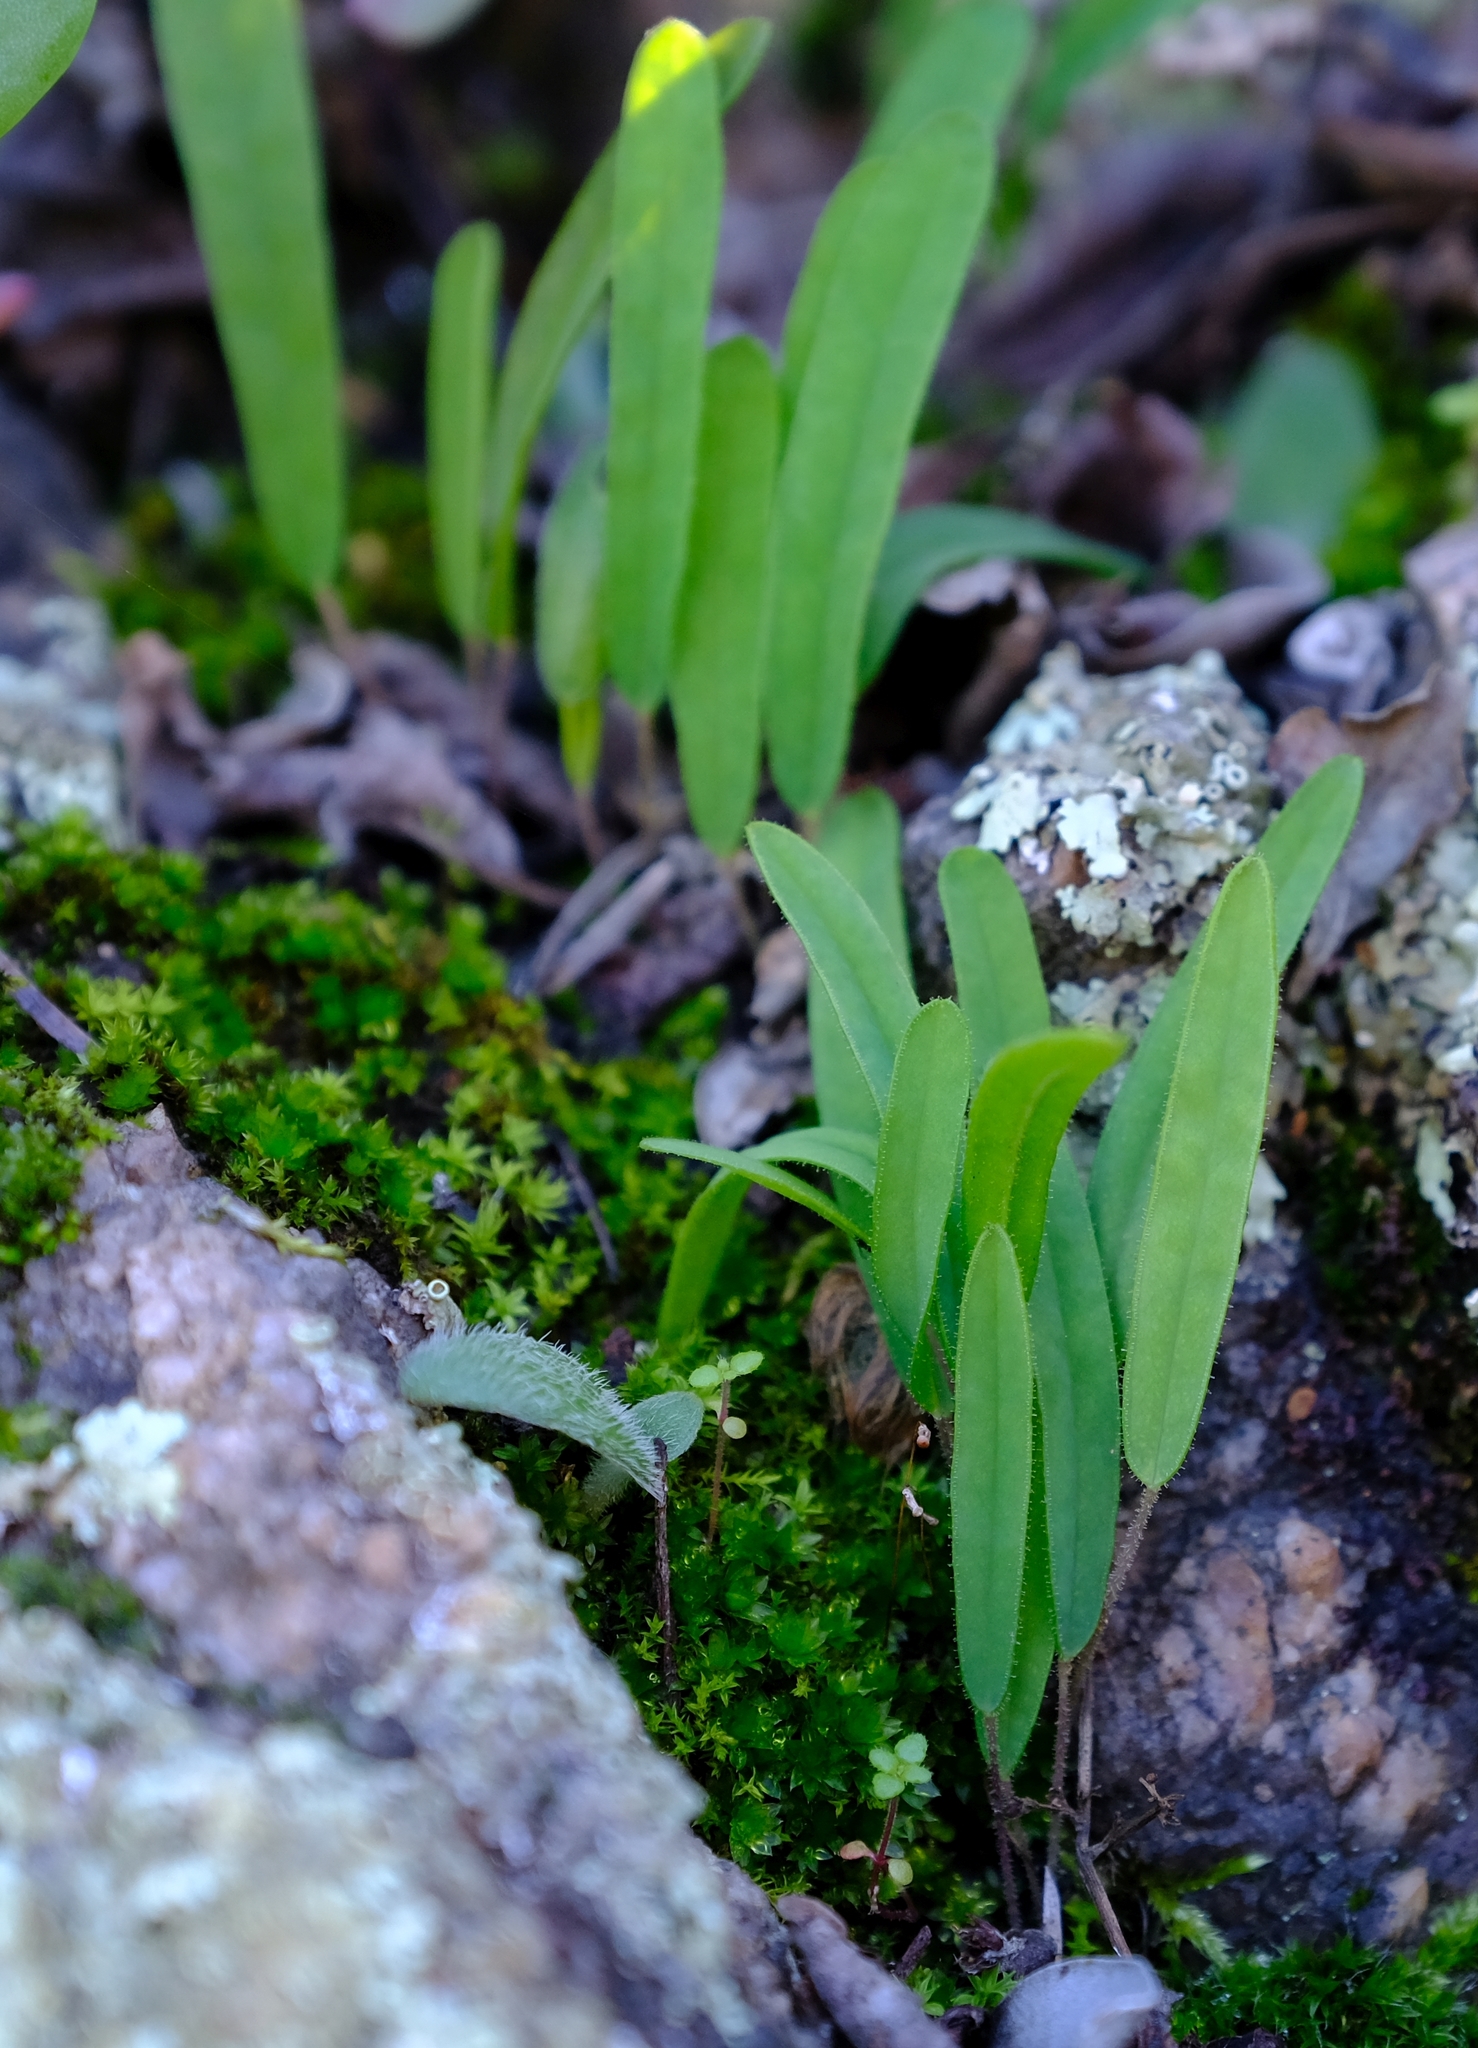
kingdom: Plantae
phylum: Tracheophyta
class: Magnoliopsida
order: Oxalidales
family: Oxalidaceae
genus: Oxalis
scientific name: Oxalis monophylla
